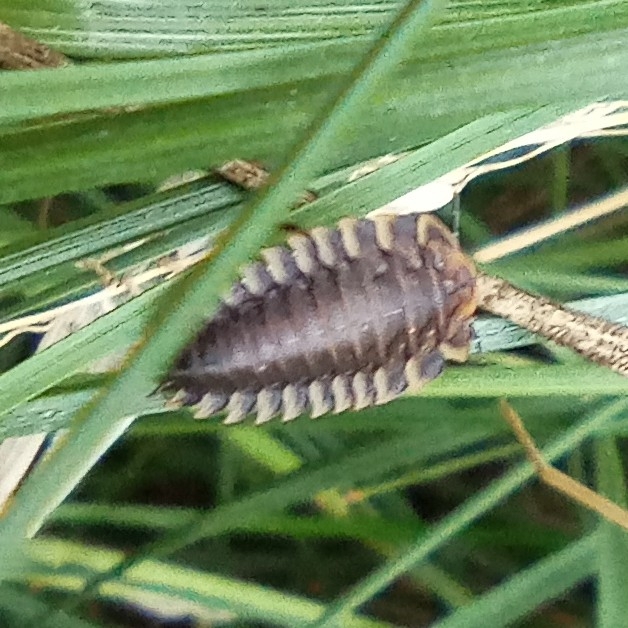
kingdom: Animalia
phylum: Arthropoda
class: Insecta
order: Coleoptera
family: Staphylinidae
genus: Oiceoptoma
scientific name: Oiceoptoma thoracicum
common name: Red-breasted carrion beetle
